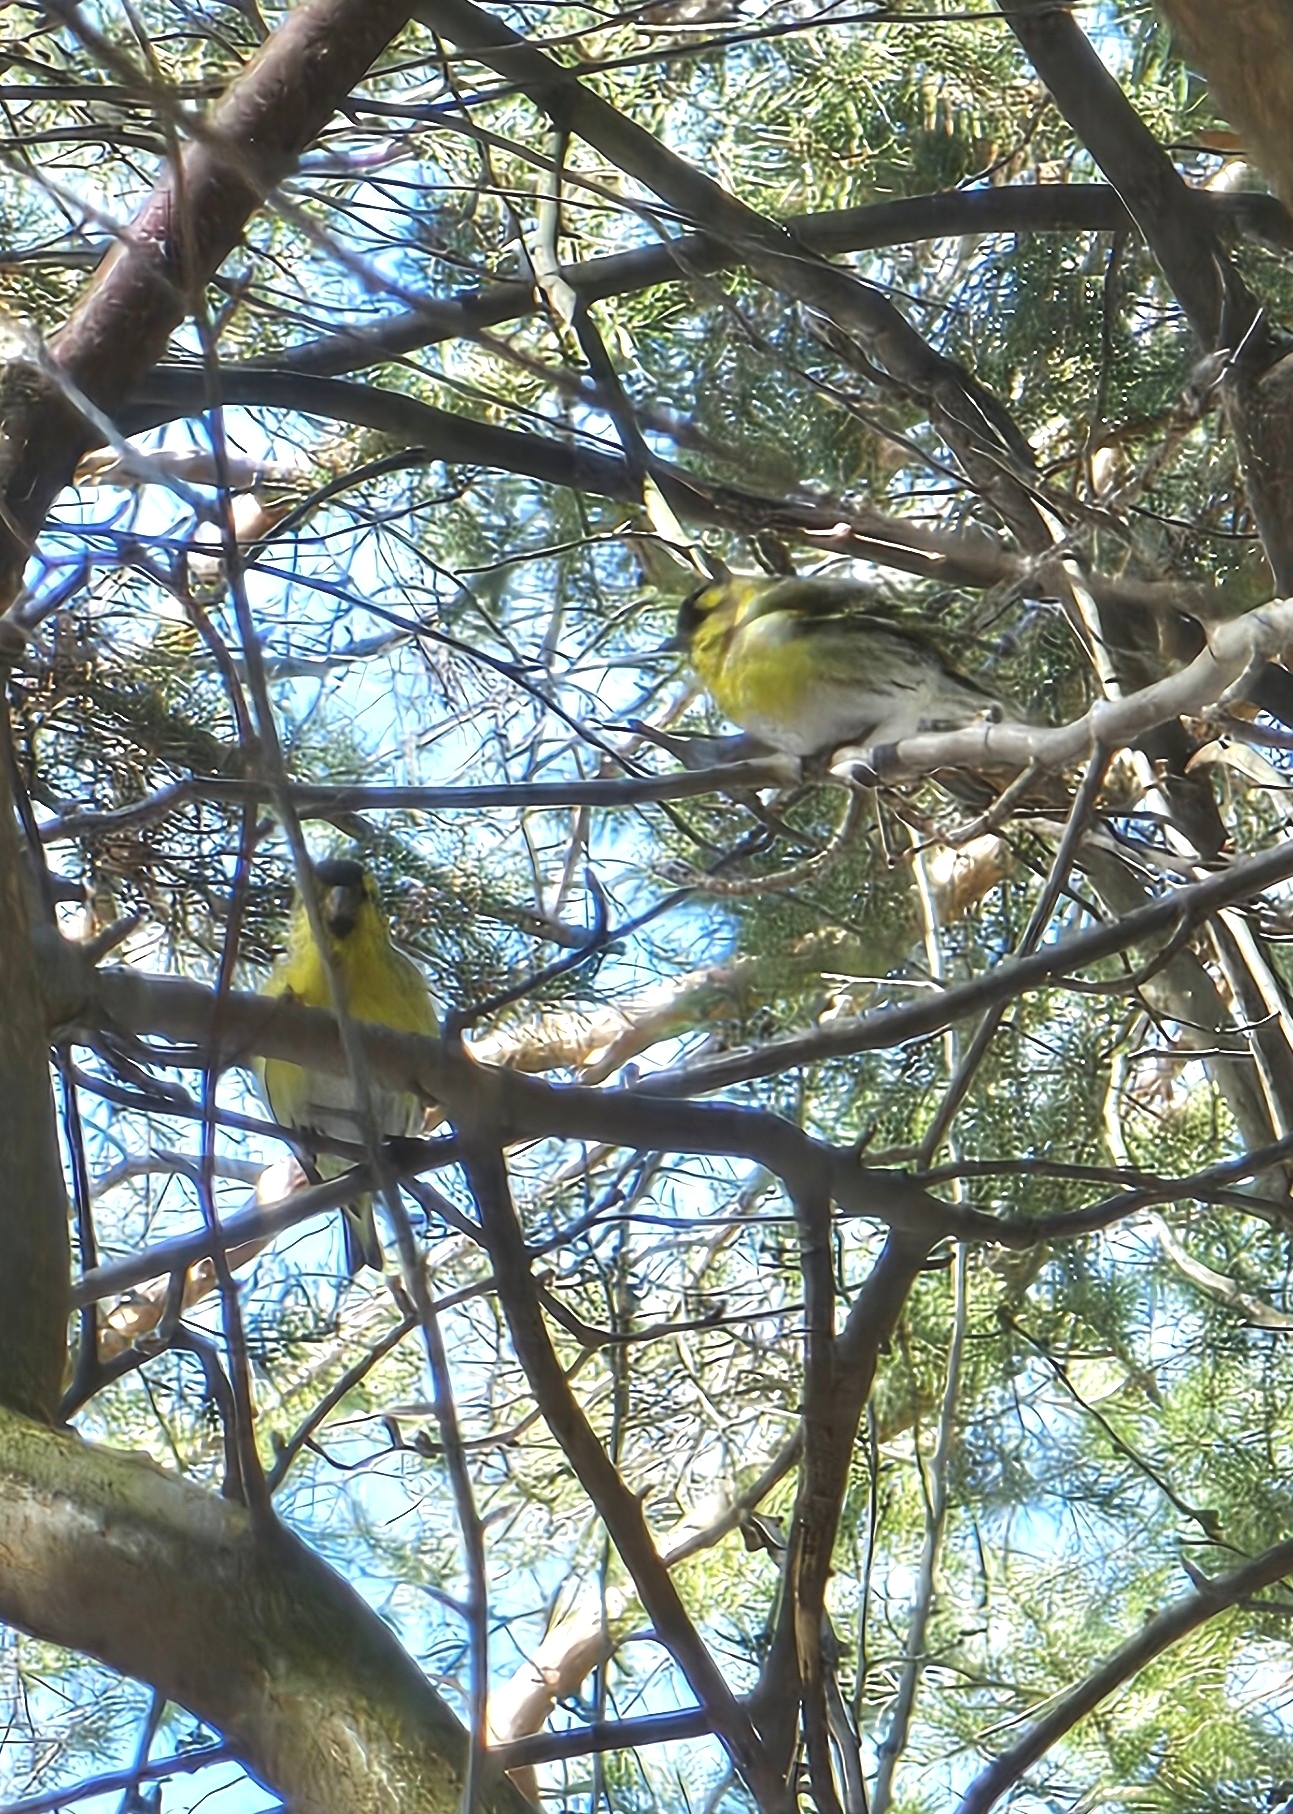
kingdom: Animalia
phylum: Chordata
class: Aves
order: Passeriformes
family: Fringillidae
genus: Spinus
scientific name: Spinus spinus
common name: Eurasian siskin
